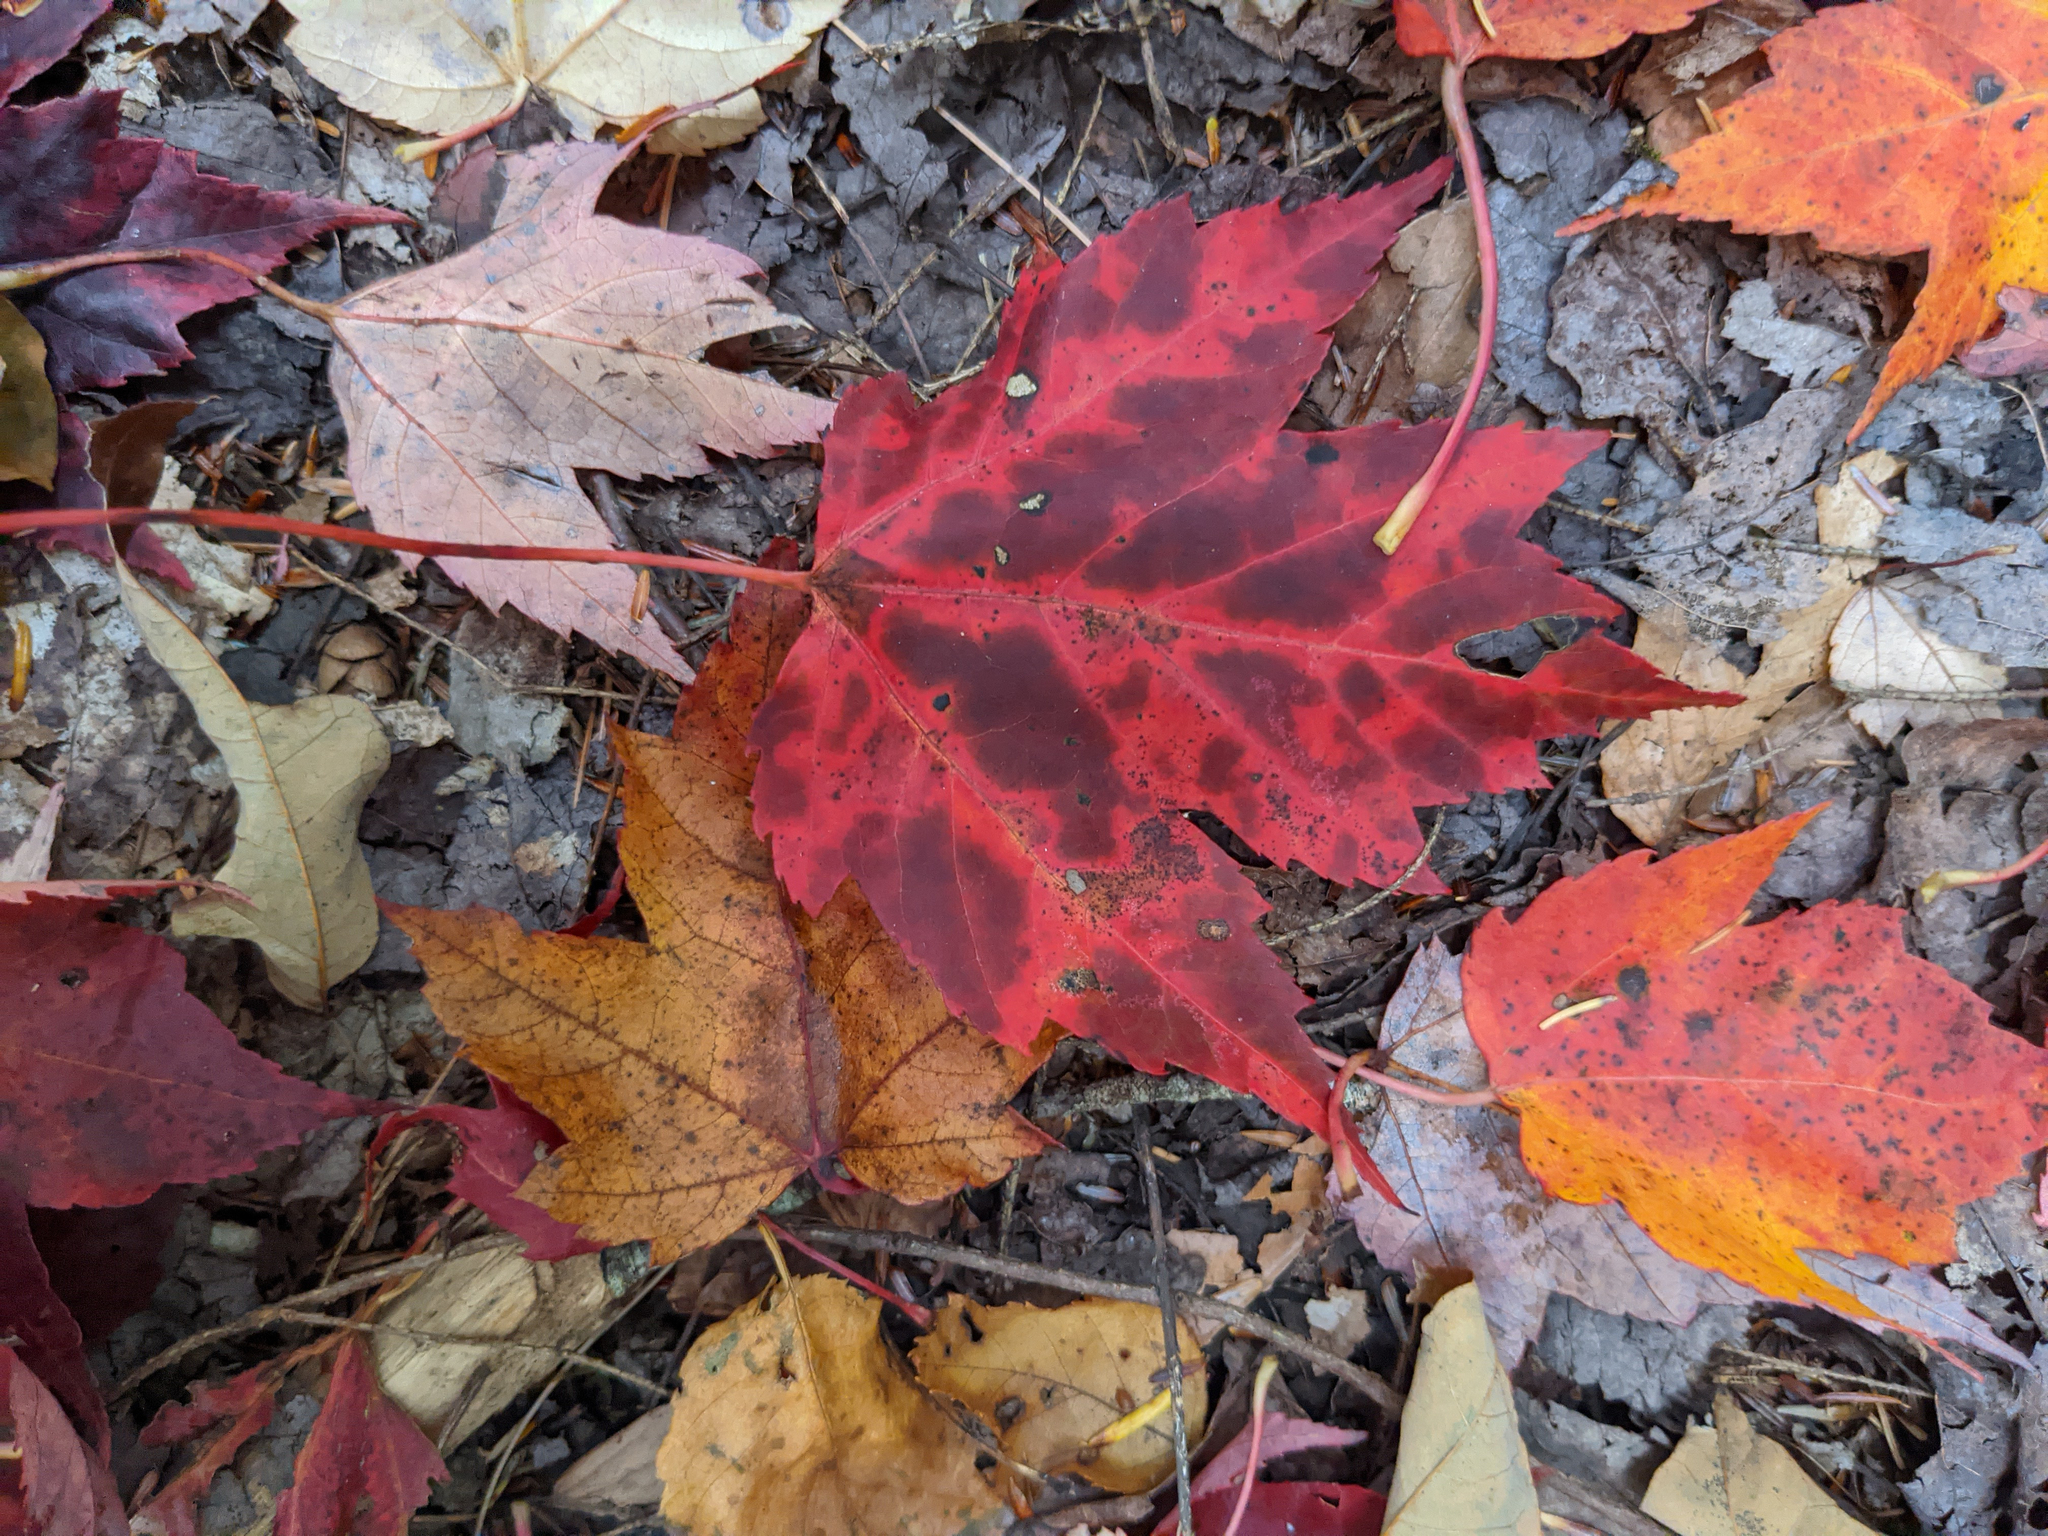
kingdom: Plantae
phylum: Tracheophyta
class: Magnoliopsida
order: Sapindales
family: Sapindaceae
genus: Acer
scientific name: Acer rubrum
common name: Red maple
